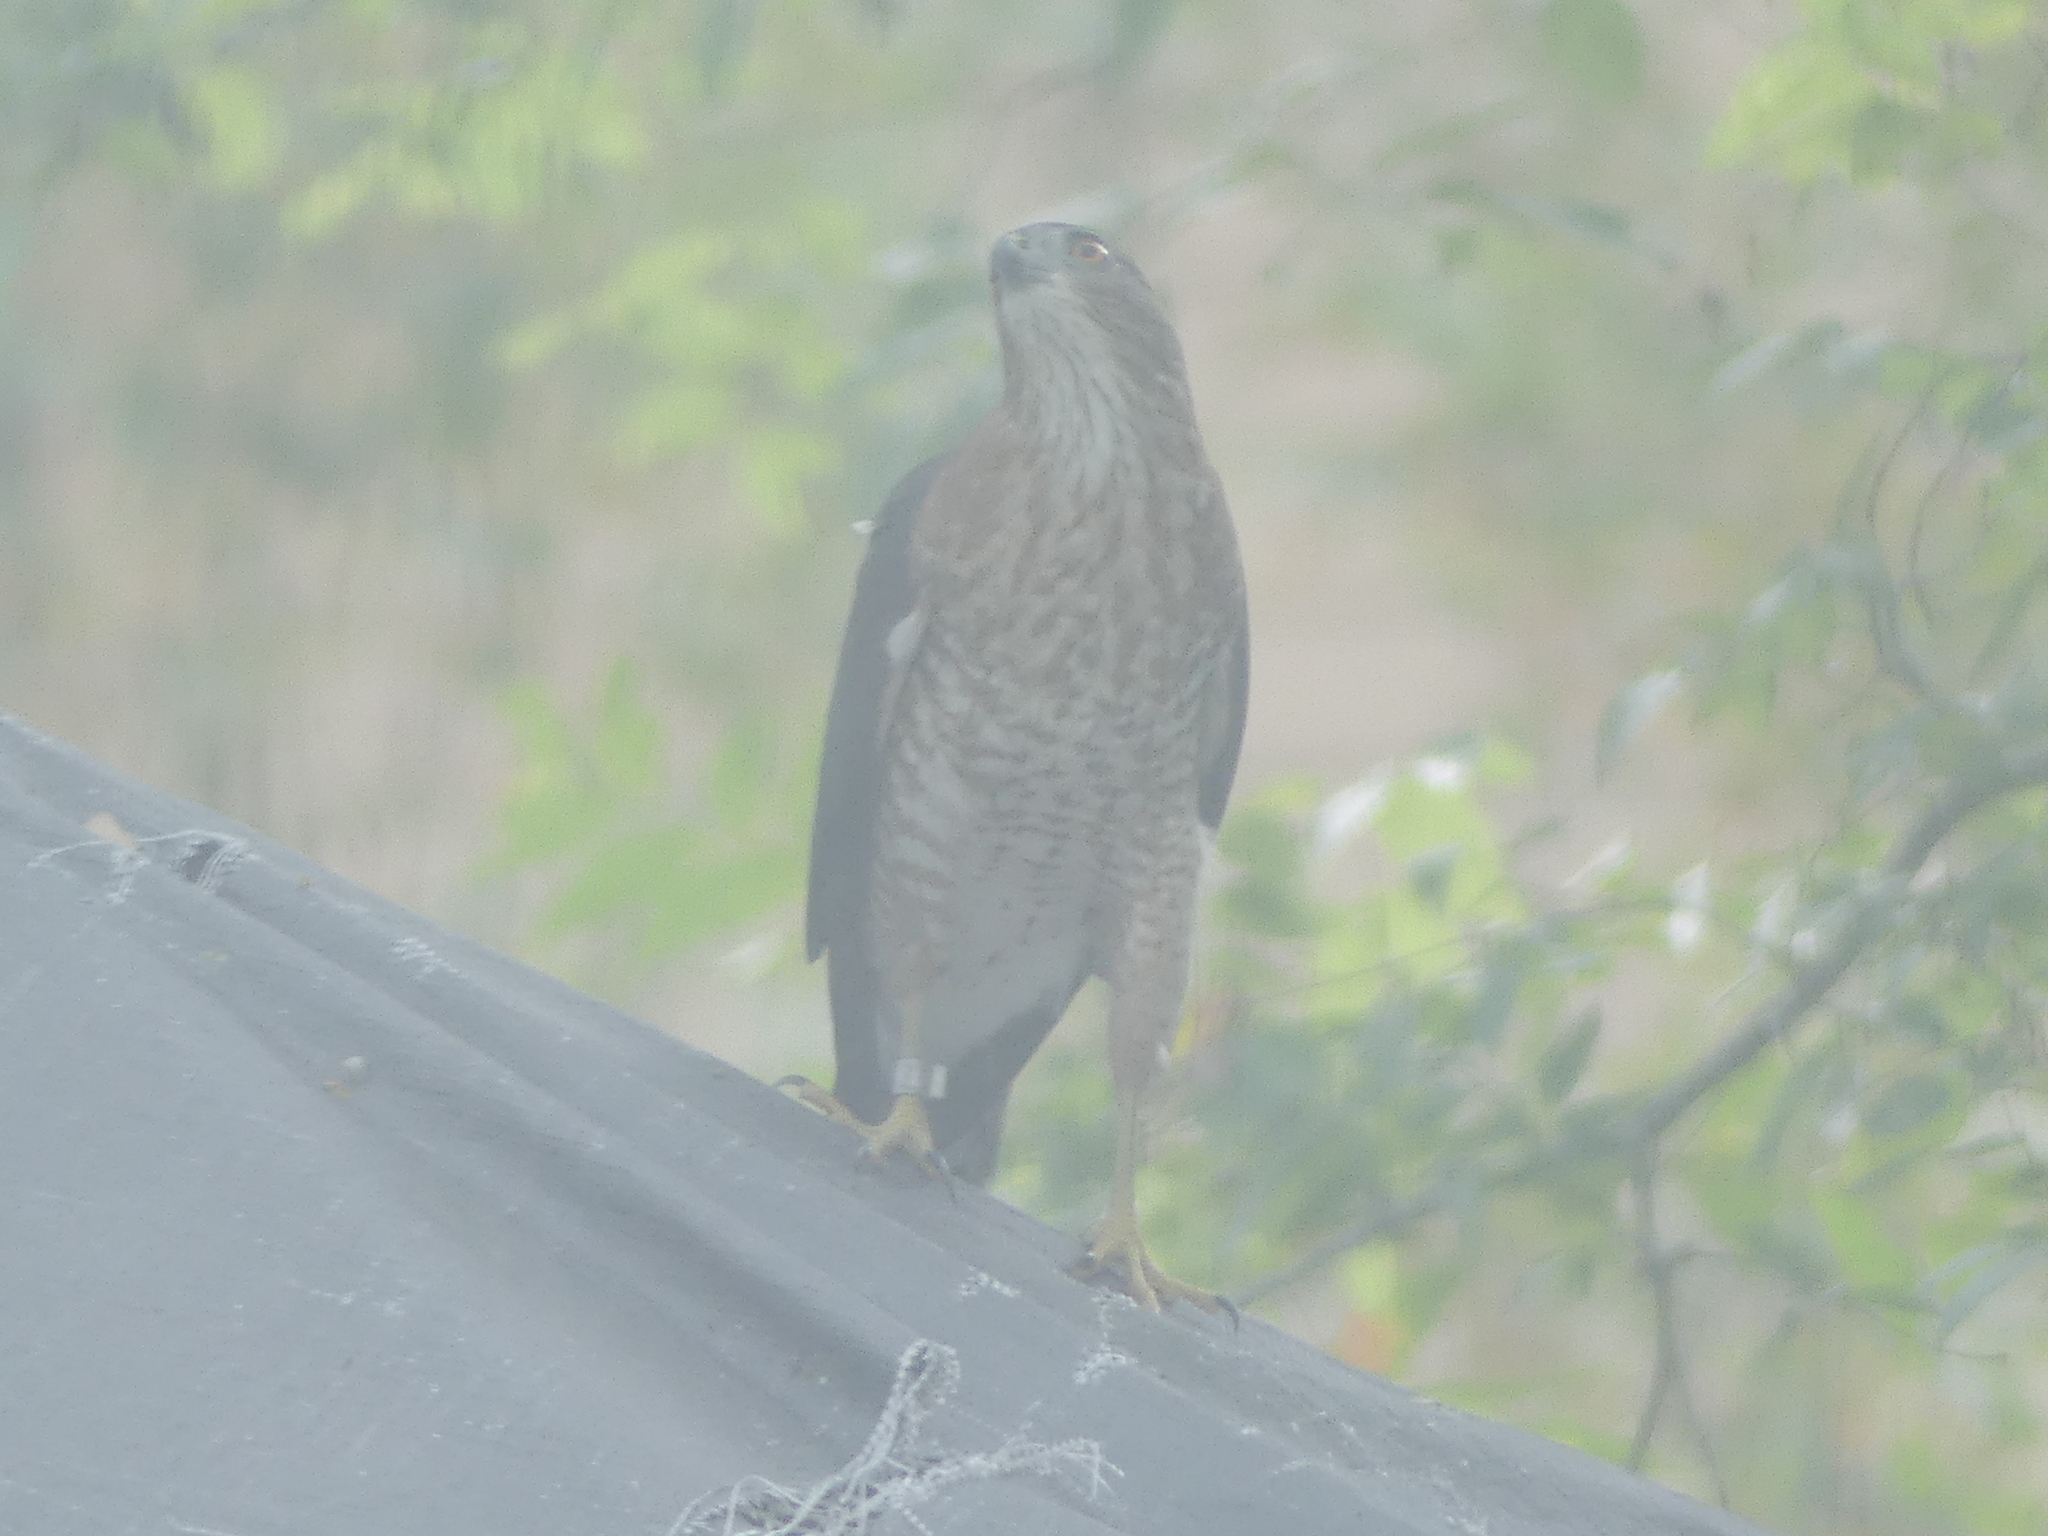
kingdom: Animalia
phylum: Chordata
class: Aves
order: Accipitriformes
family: Accipitridae
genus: Accipiter
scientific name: Accipiter cooperii
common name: Cooper's hawk
